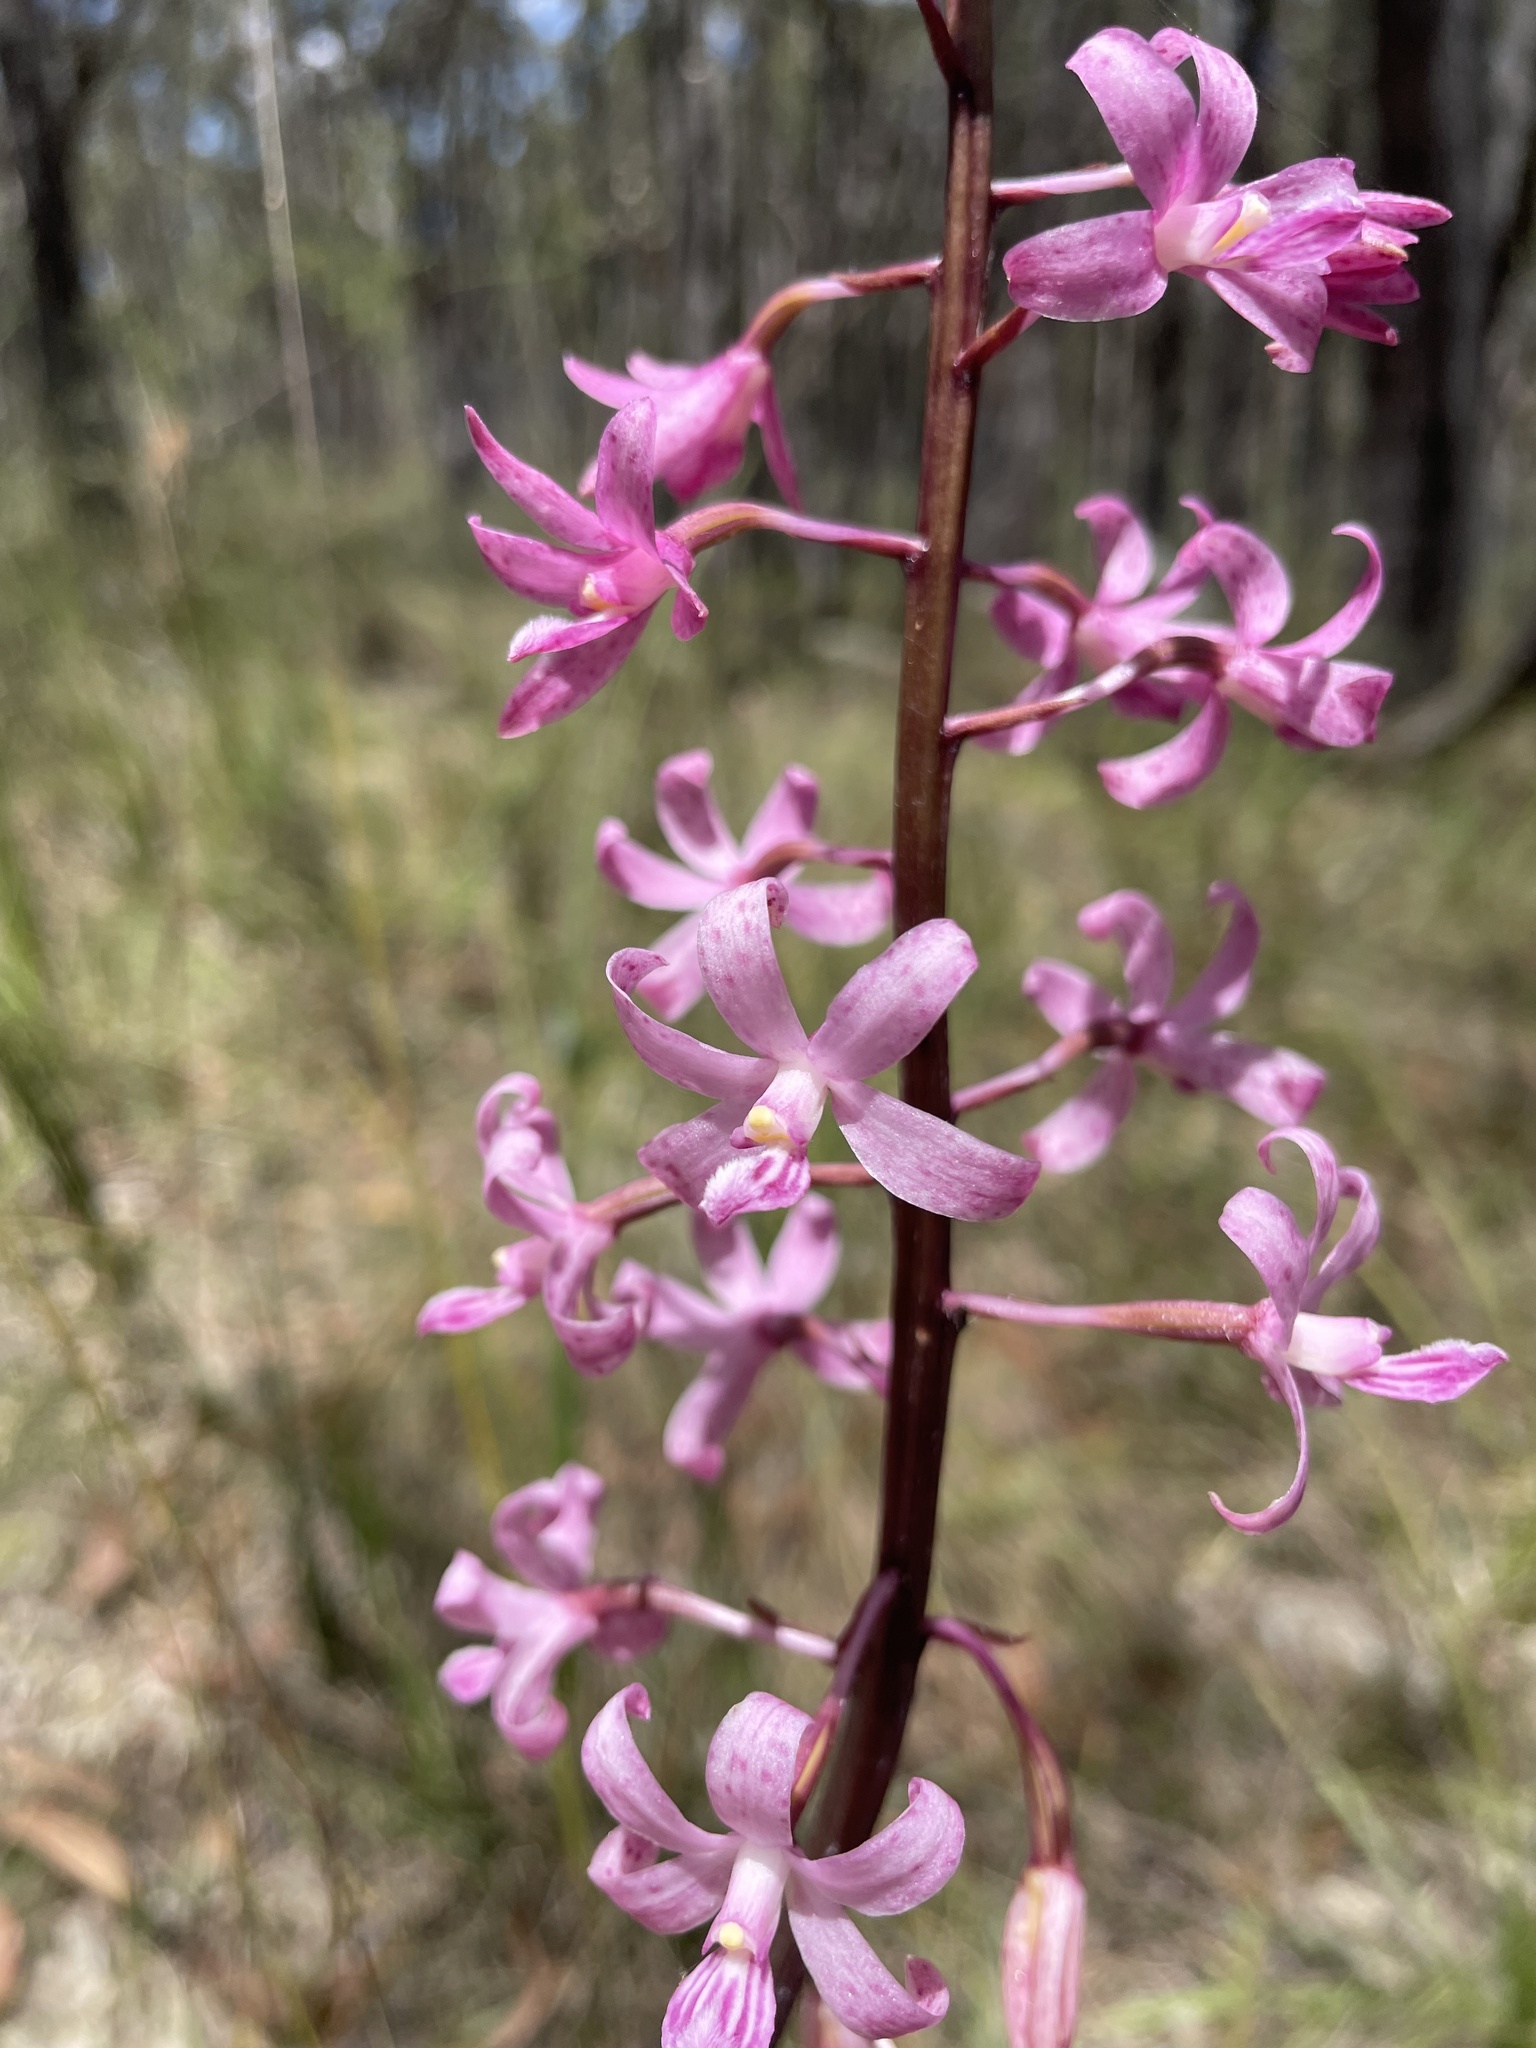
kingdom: Plantae
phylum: Tracheophyta
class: Liliopsida
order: Asparagales
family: Orchidaceae
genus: Dipodium
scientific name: Dipodium roseum
